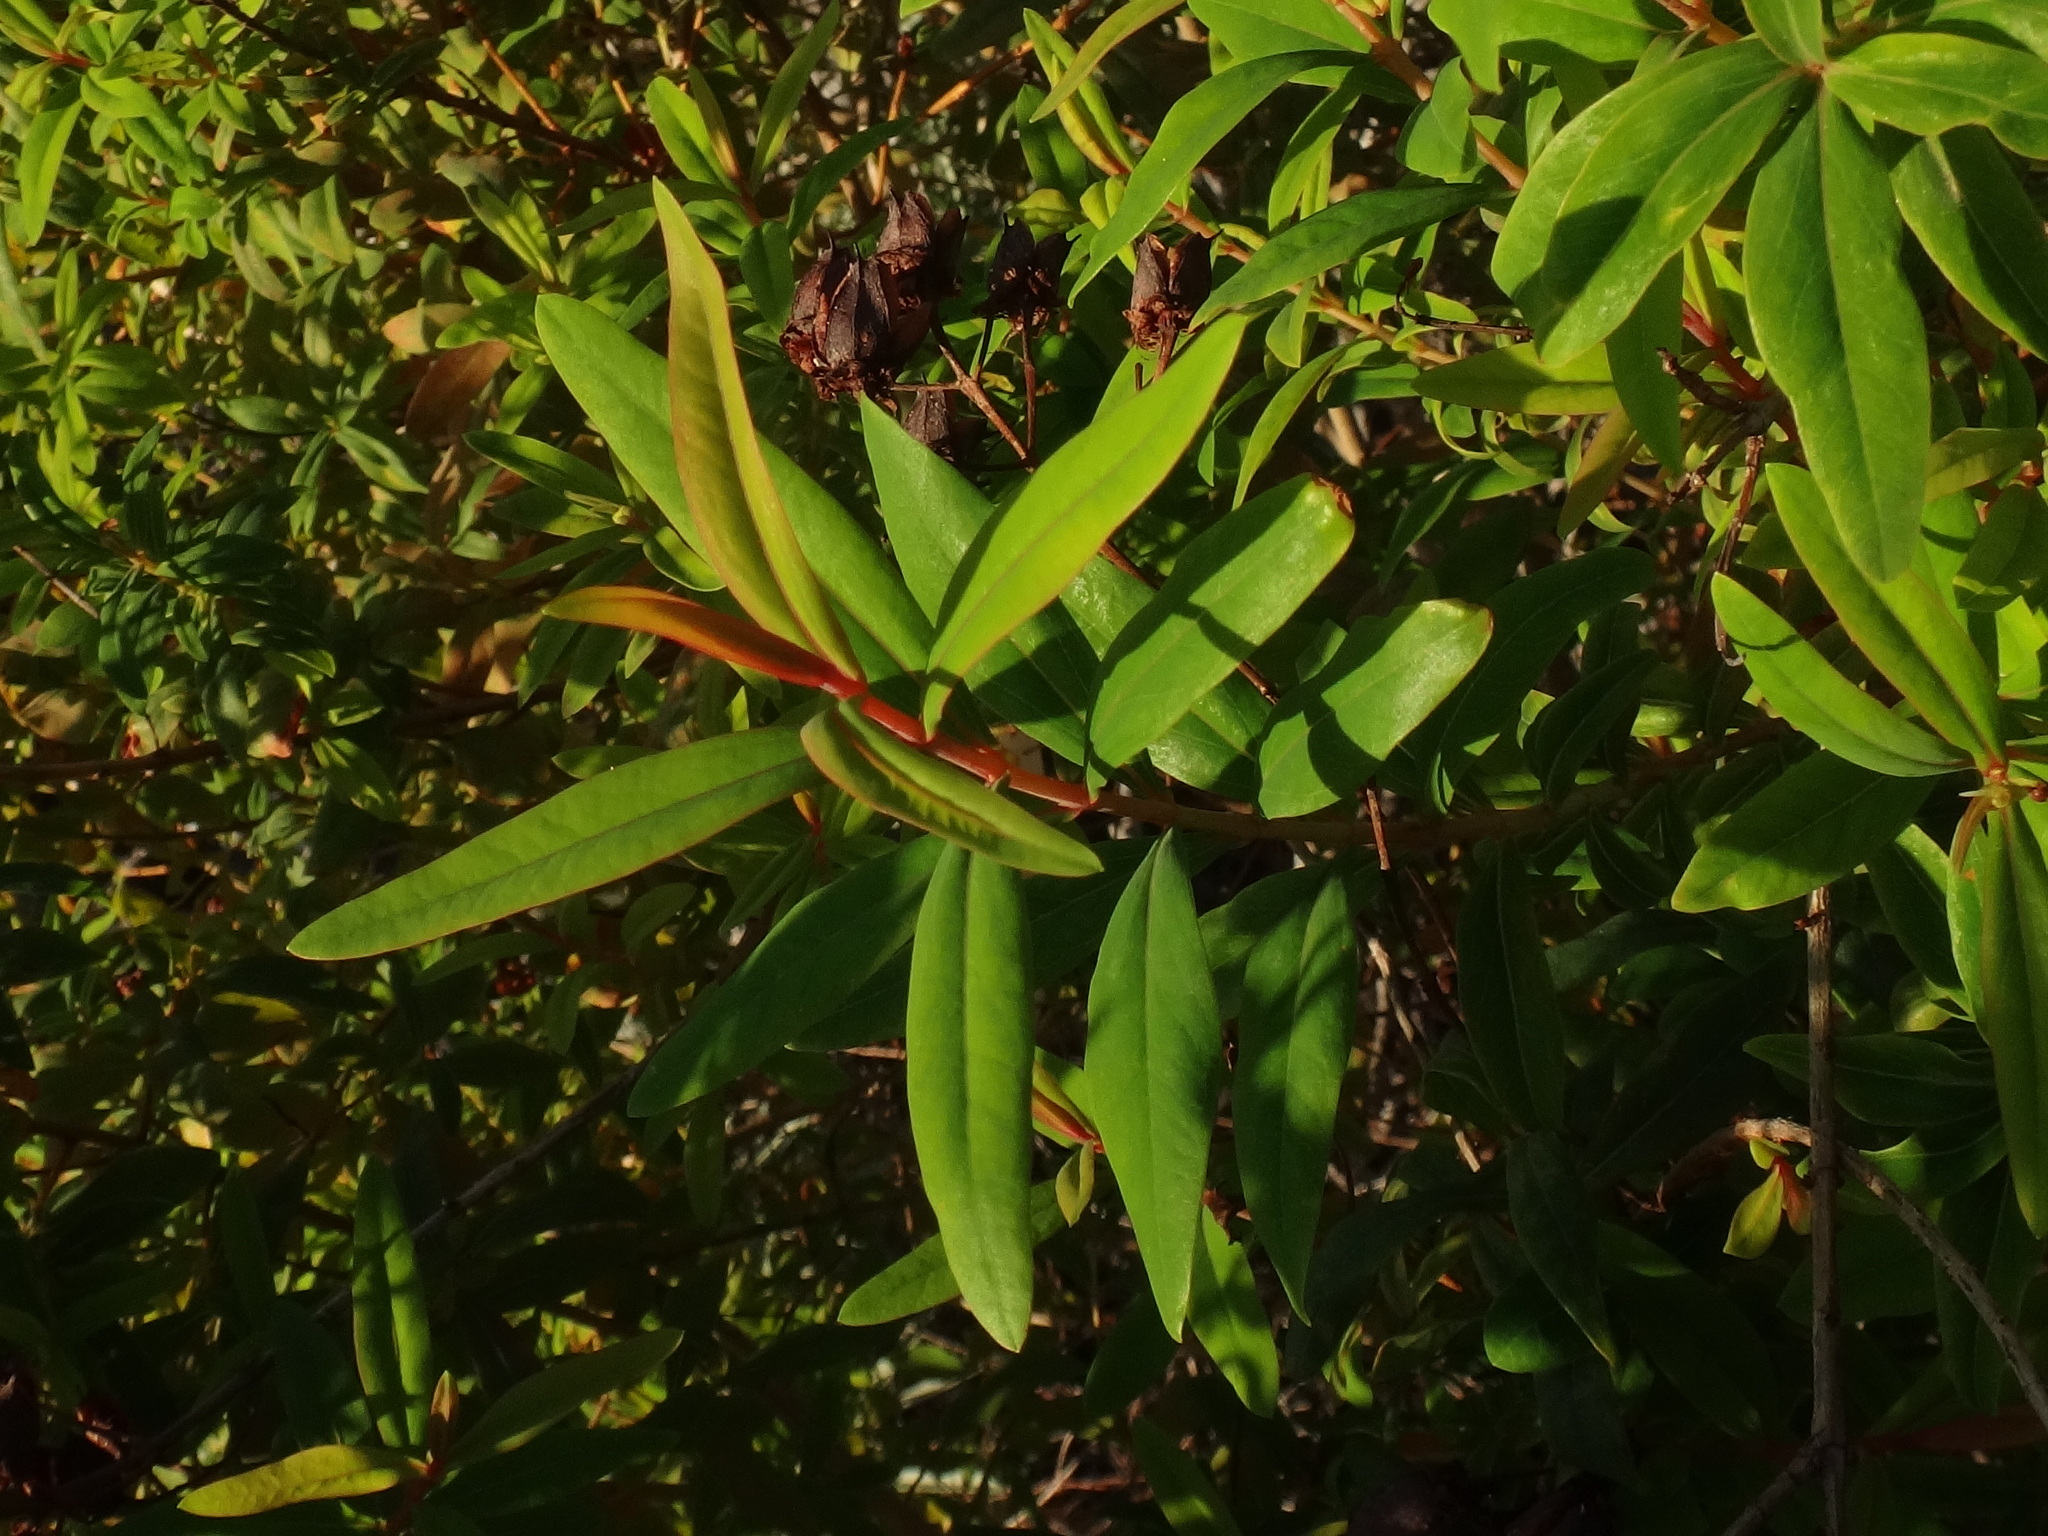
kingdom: Plantae
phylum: Tracheophyta
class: Magnoliopsida
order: Malpighiales
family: Hypericaceae
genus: Hypericum
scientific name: Hypericum canariense
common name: Canary island st. johnswort
